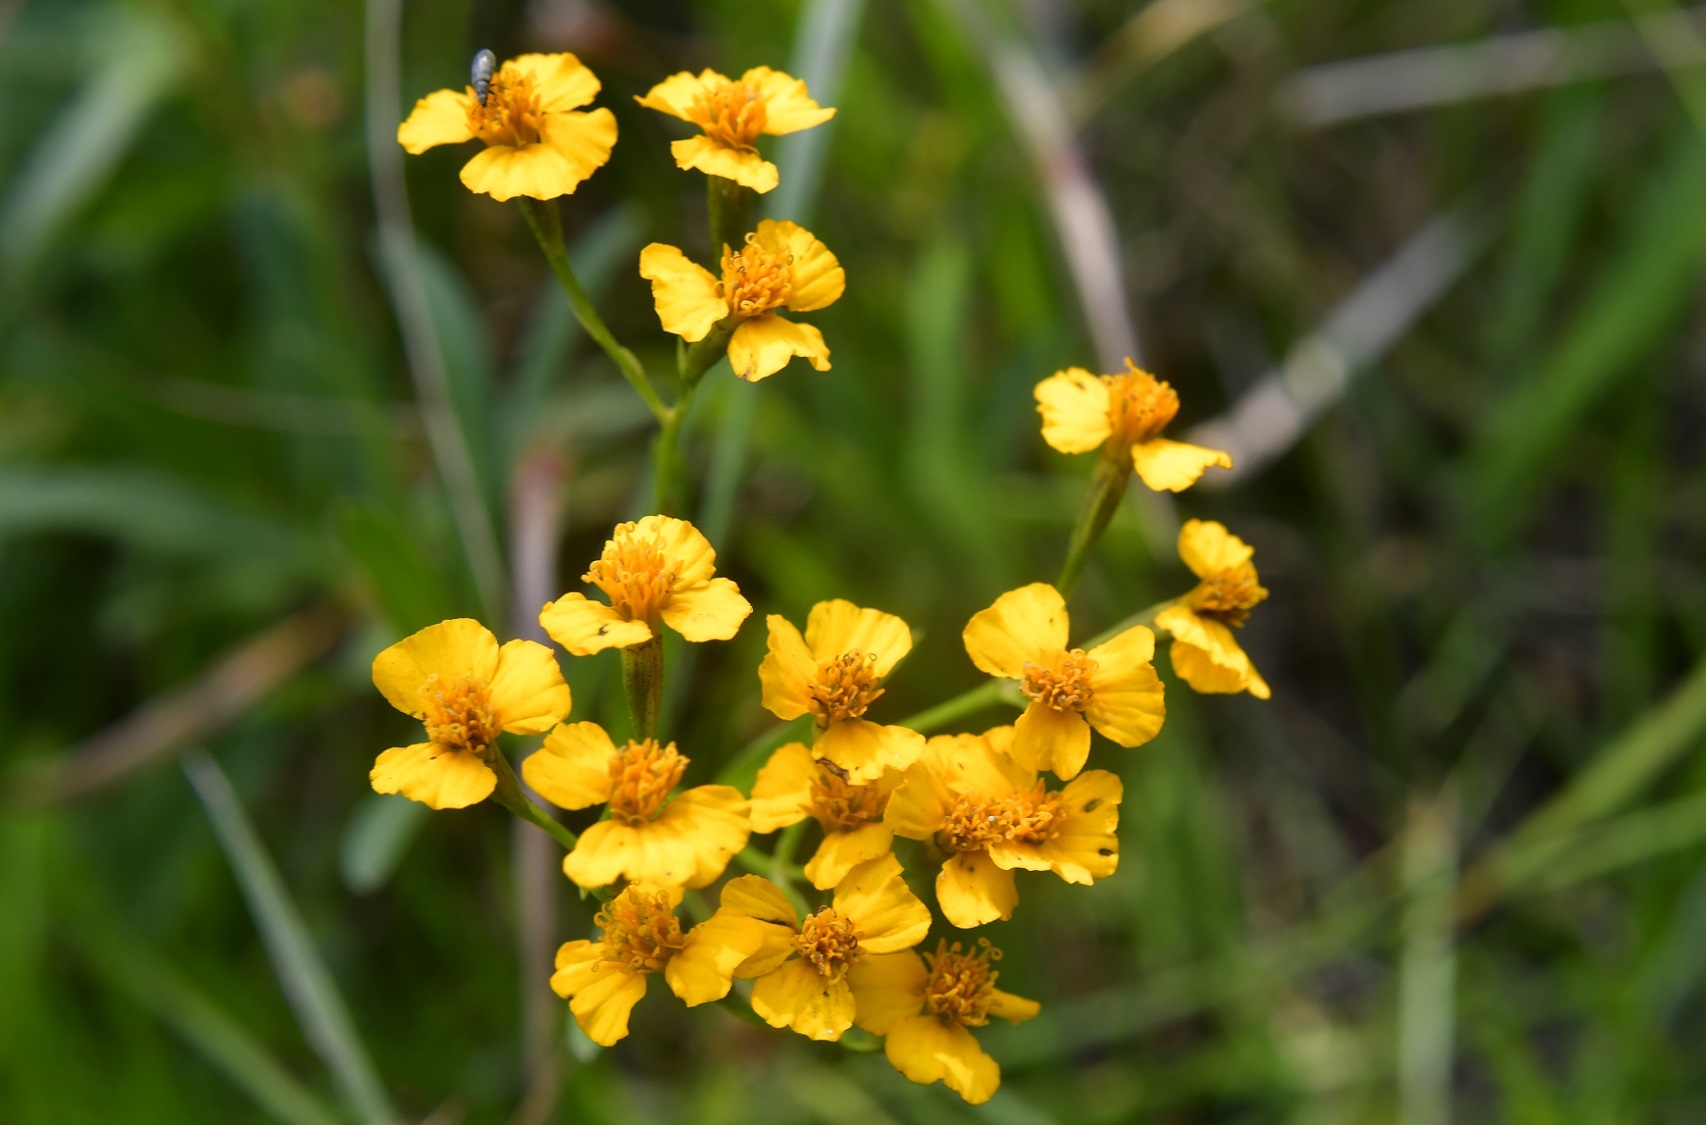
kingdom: Plantae
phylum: Tracheophyta
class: Magnoliopsida
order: Asterales
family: Asteraceae
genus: Tagetes
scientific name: Tagetes lucida
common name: Sweetscented marigold
